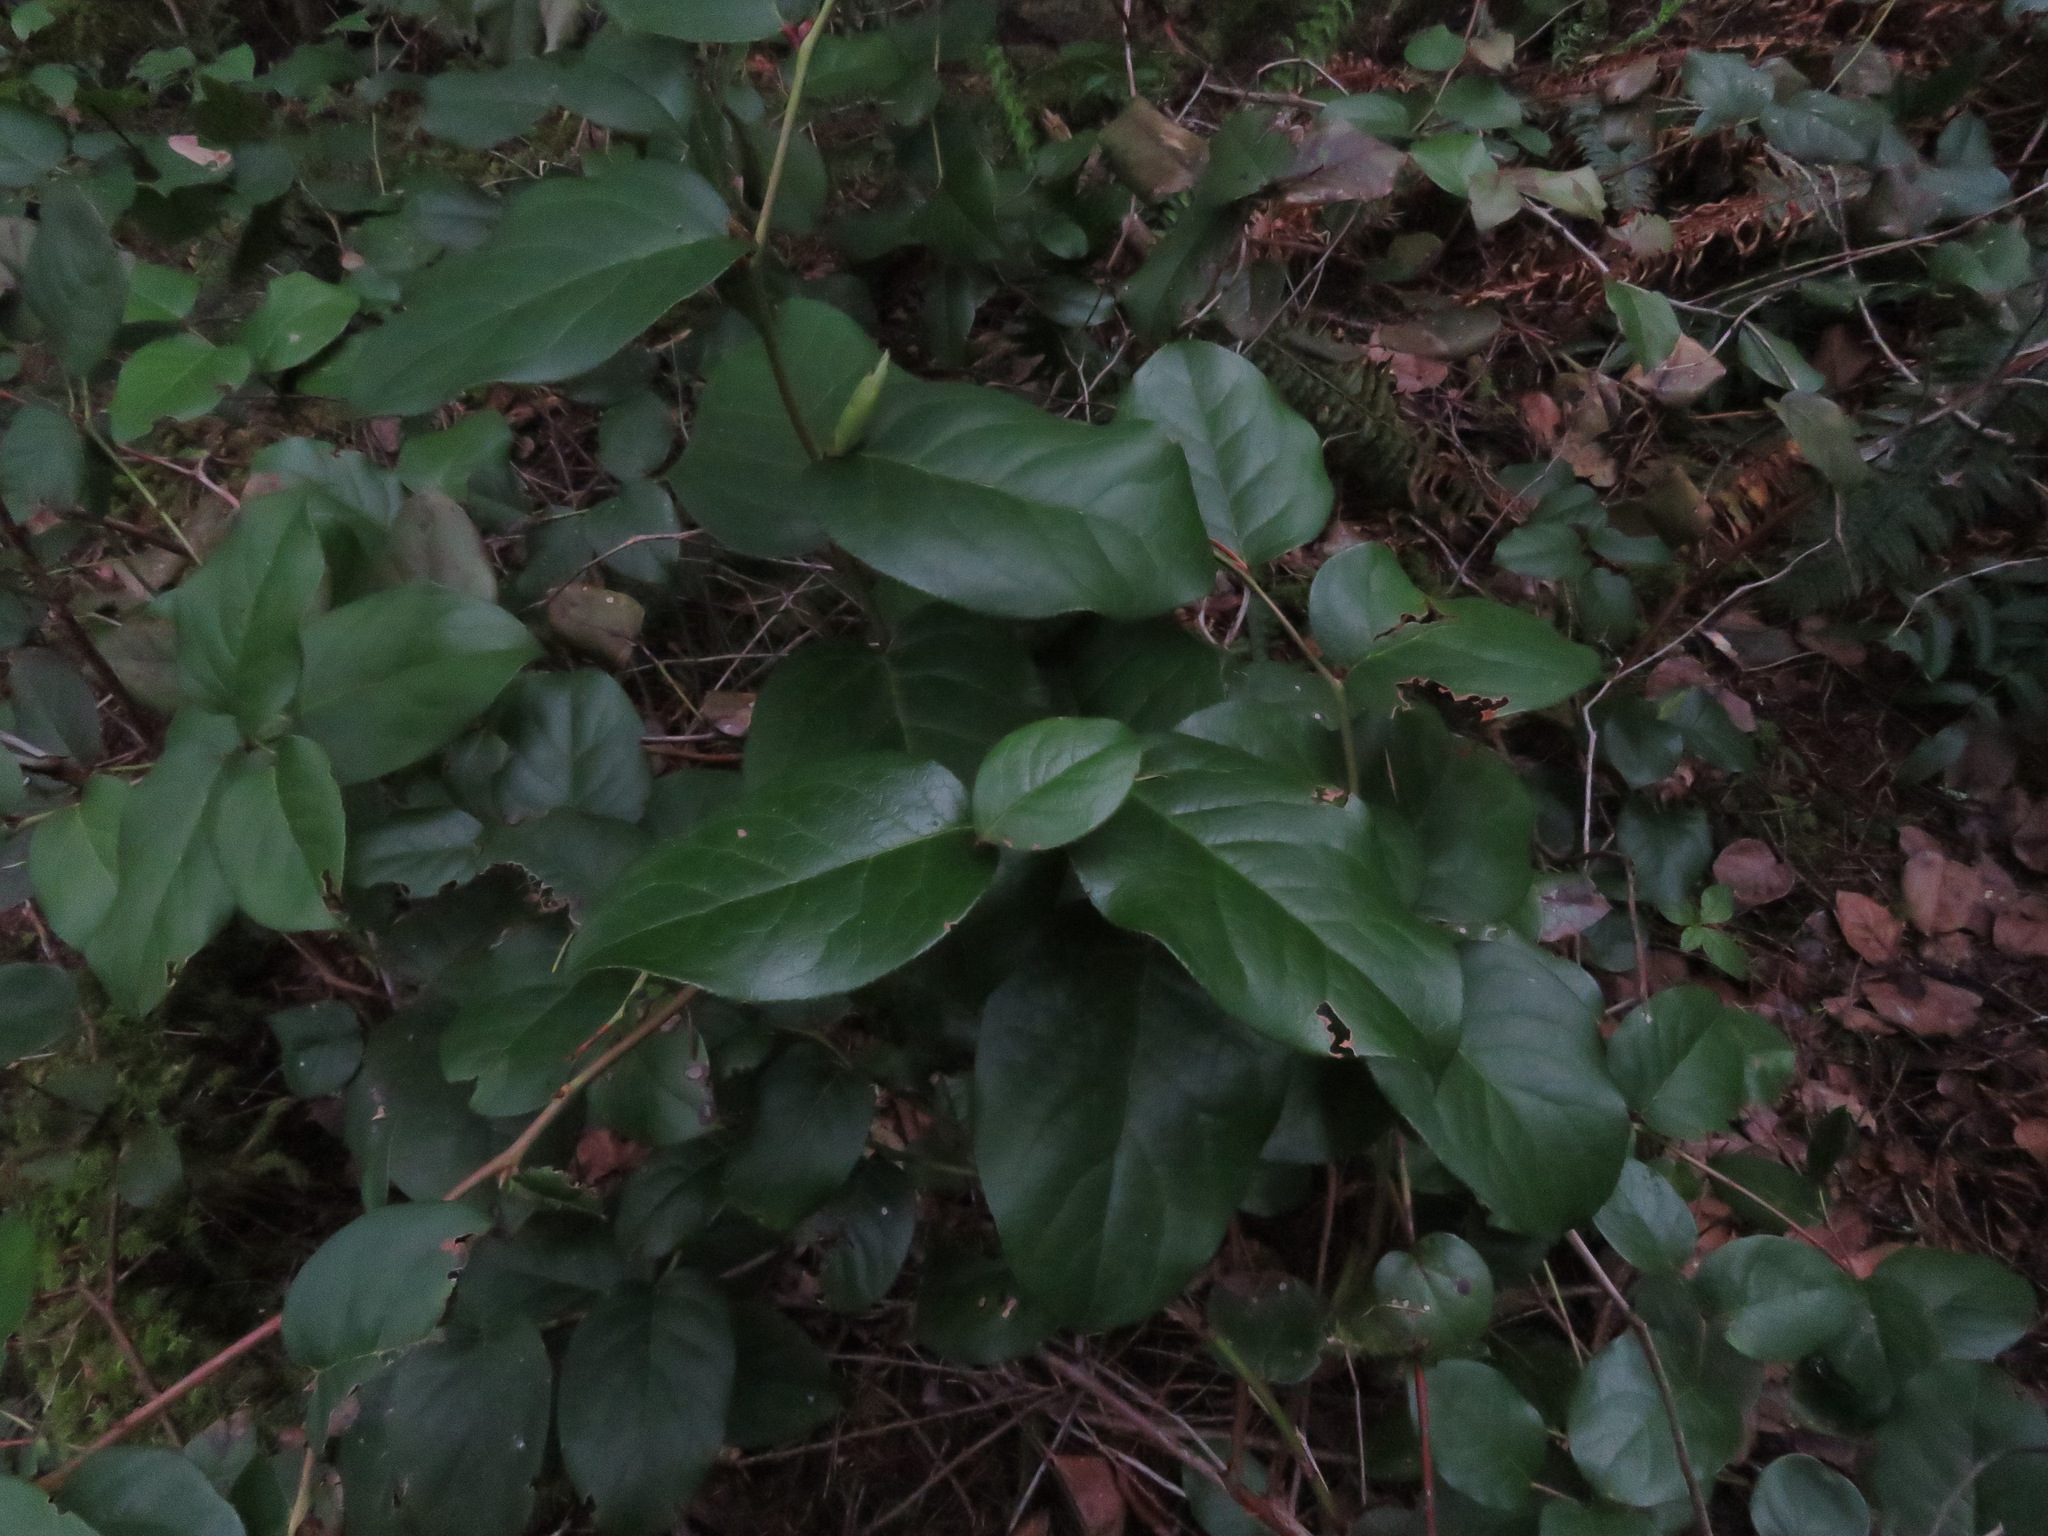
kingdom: Plantae
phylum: Tracheophyta
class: Magnoliopsida
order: Ericales
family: Ericaceae
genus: Gaultheria
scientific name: Gaultheria shallon
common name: Shallon
